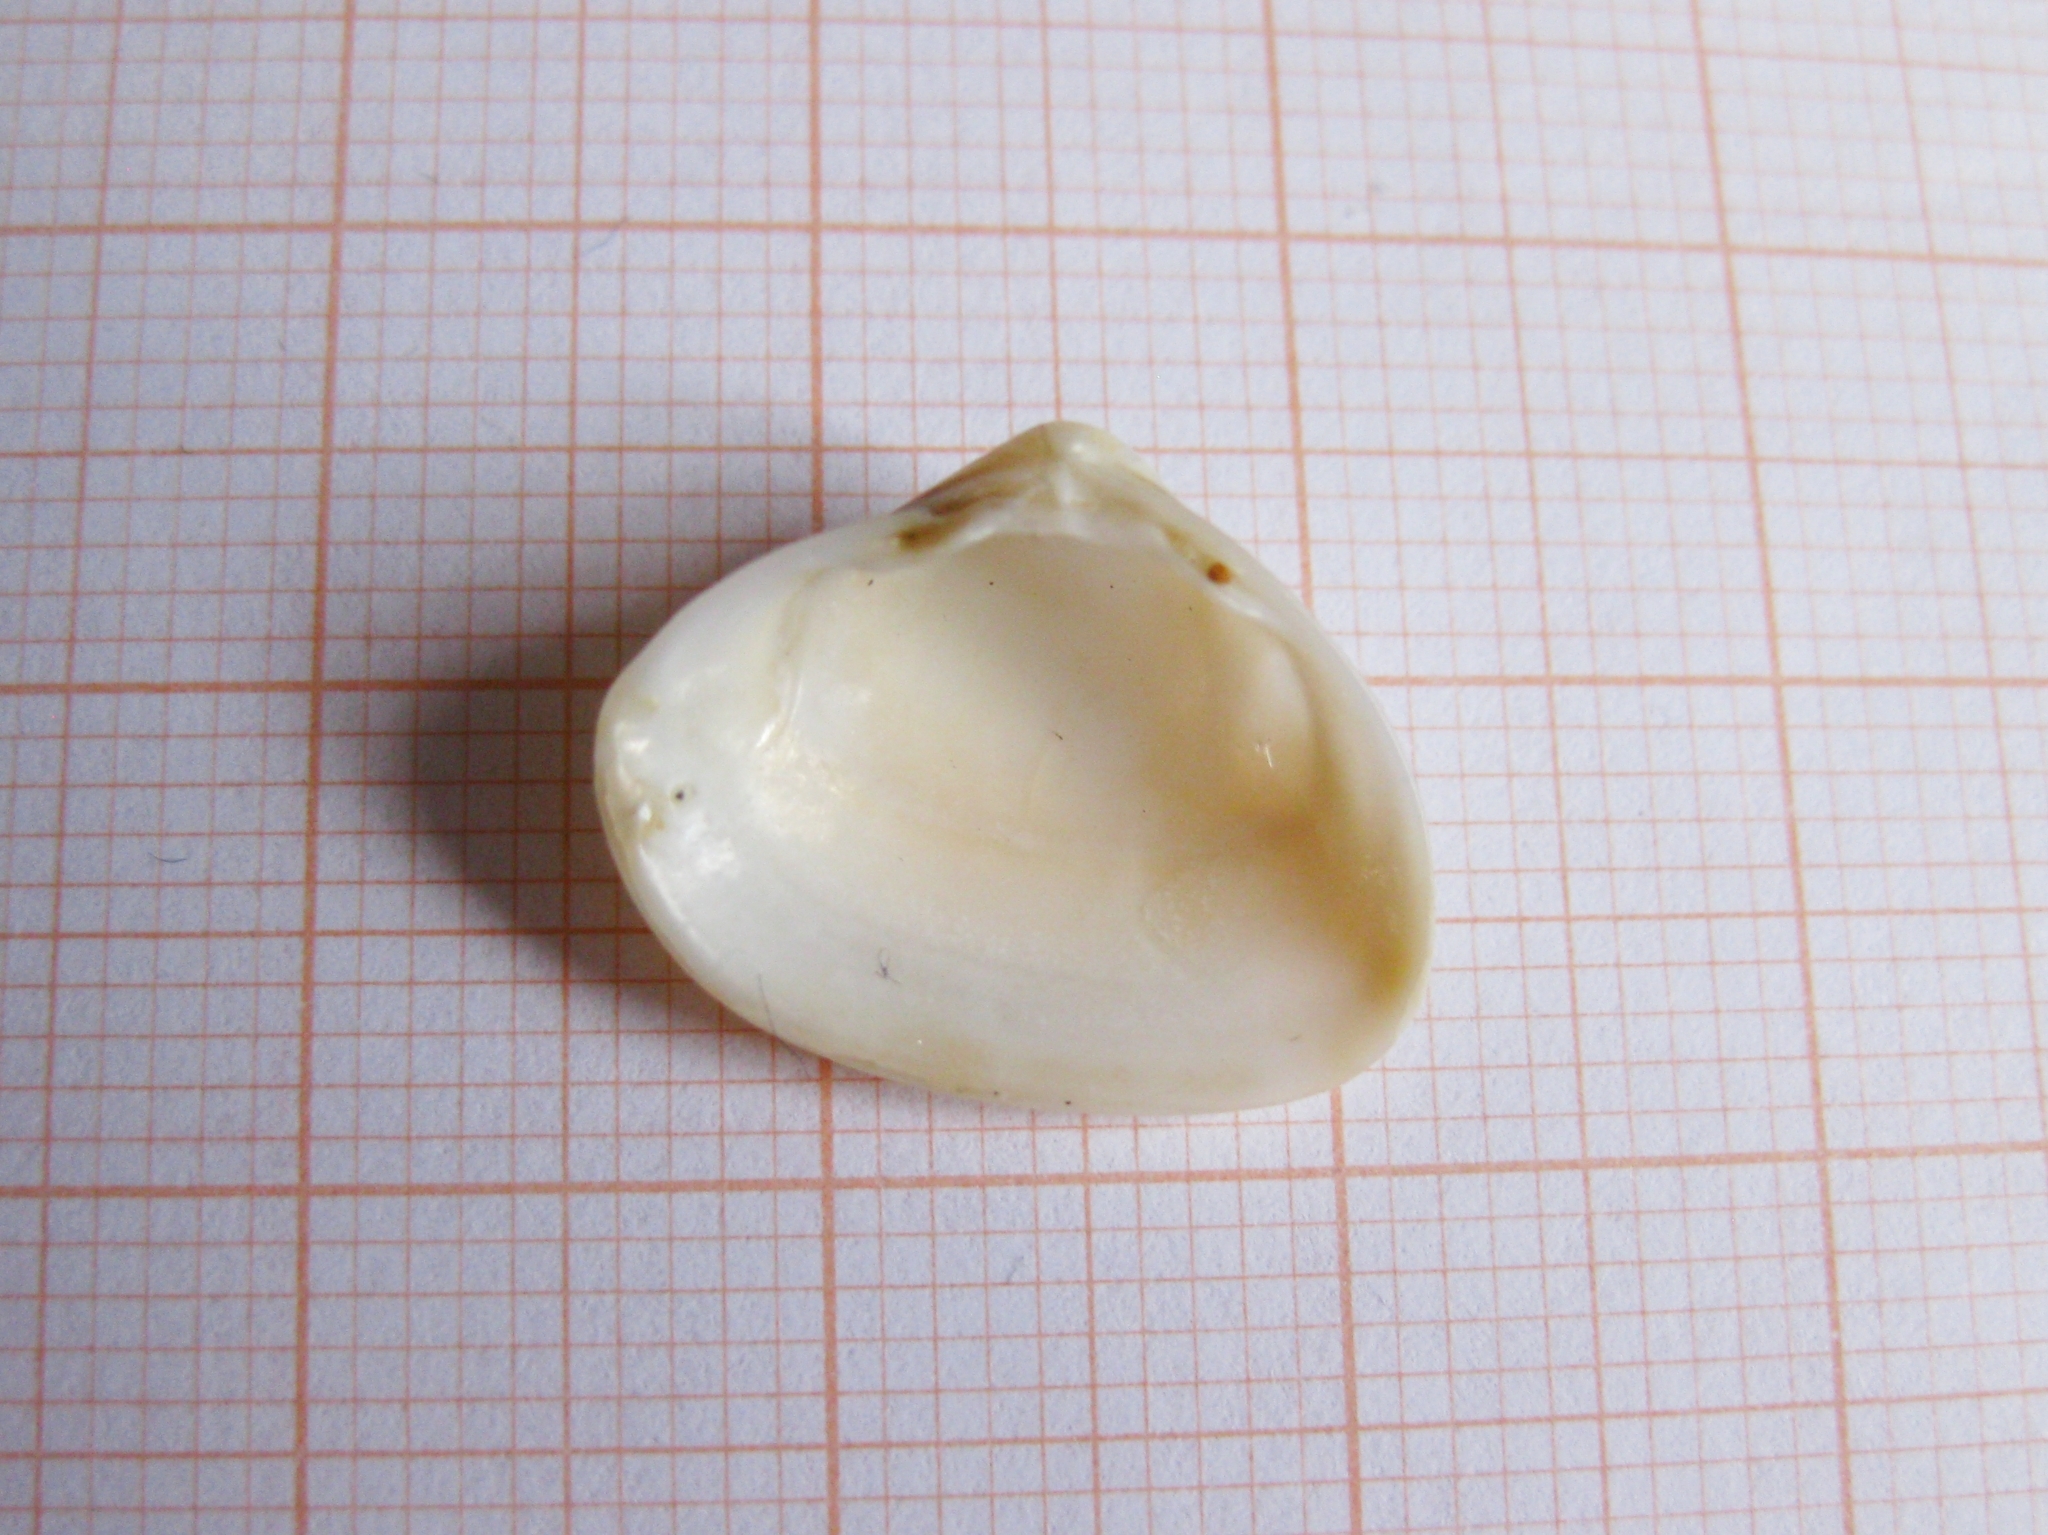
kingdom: Animalia
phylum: Mollusca
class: Bivalvia
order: Venerida
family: Mactridae
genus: Spisula
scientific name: Spisula subtruncata
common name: Cut trough shell
